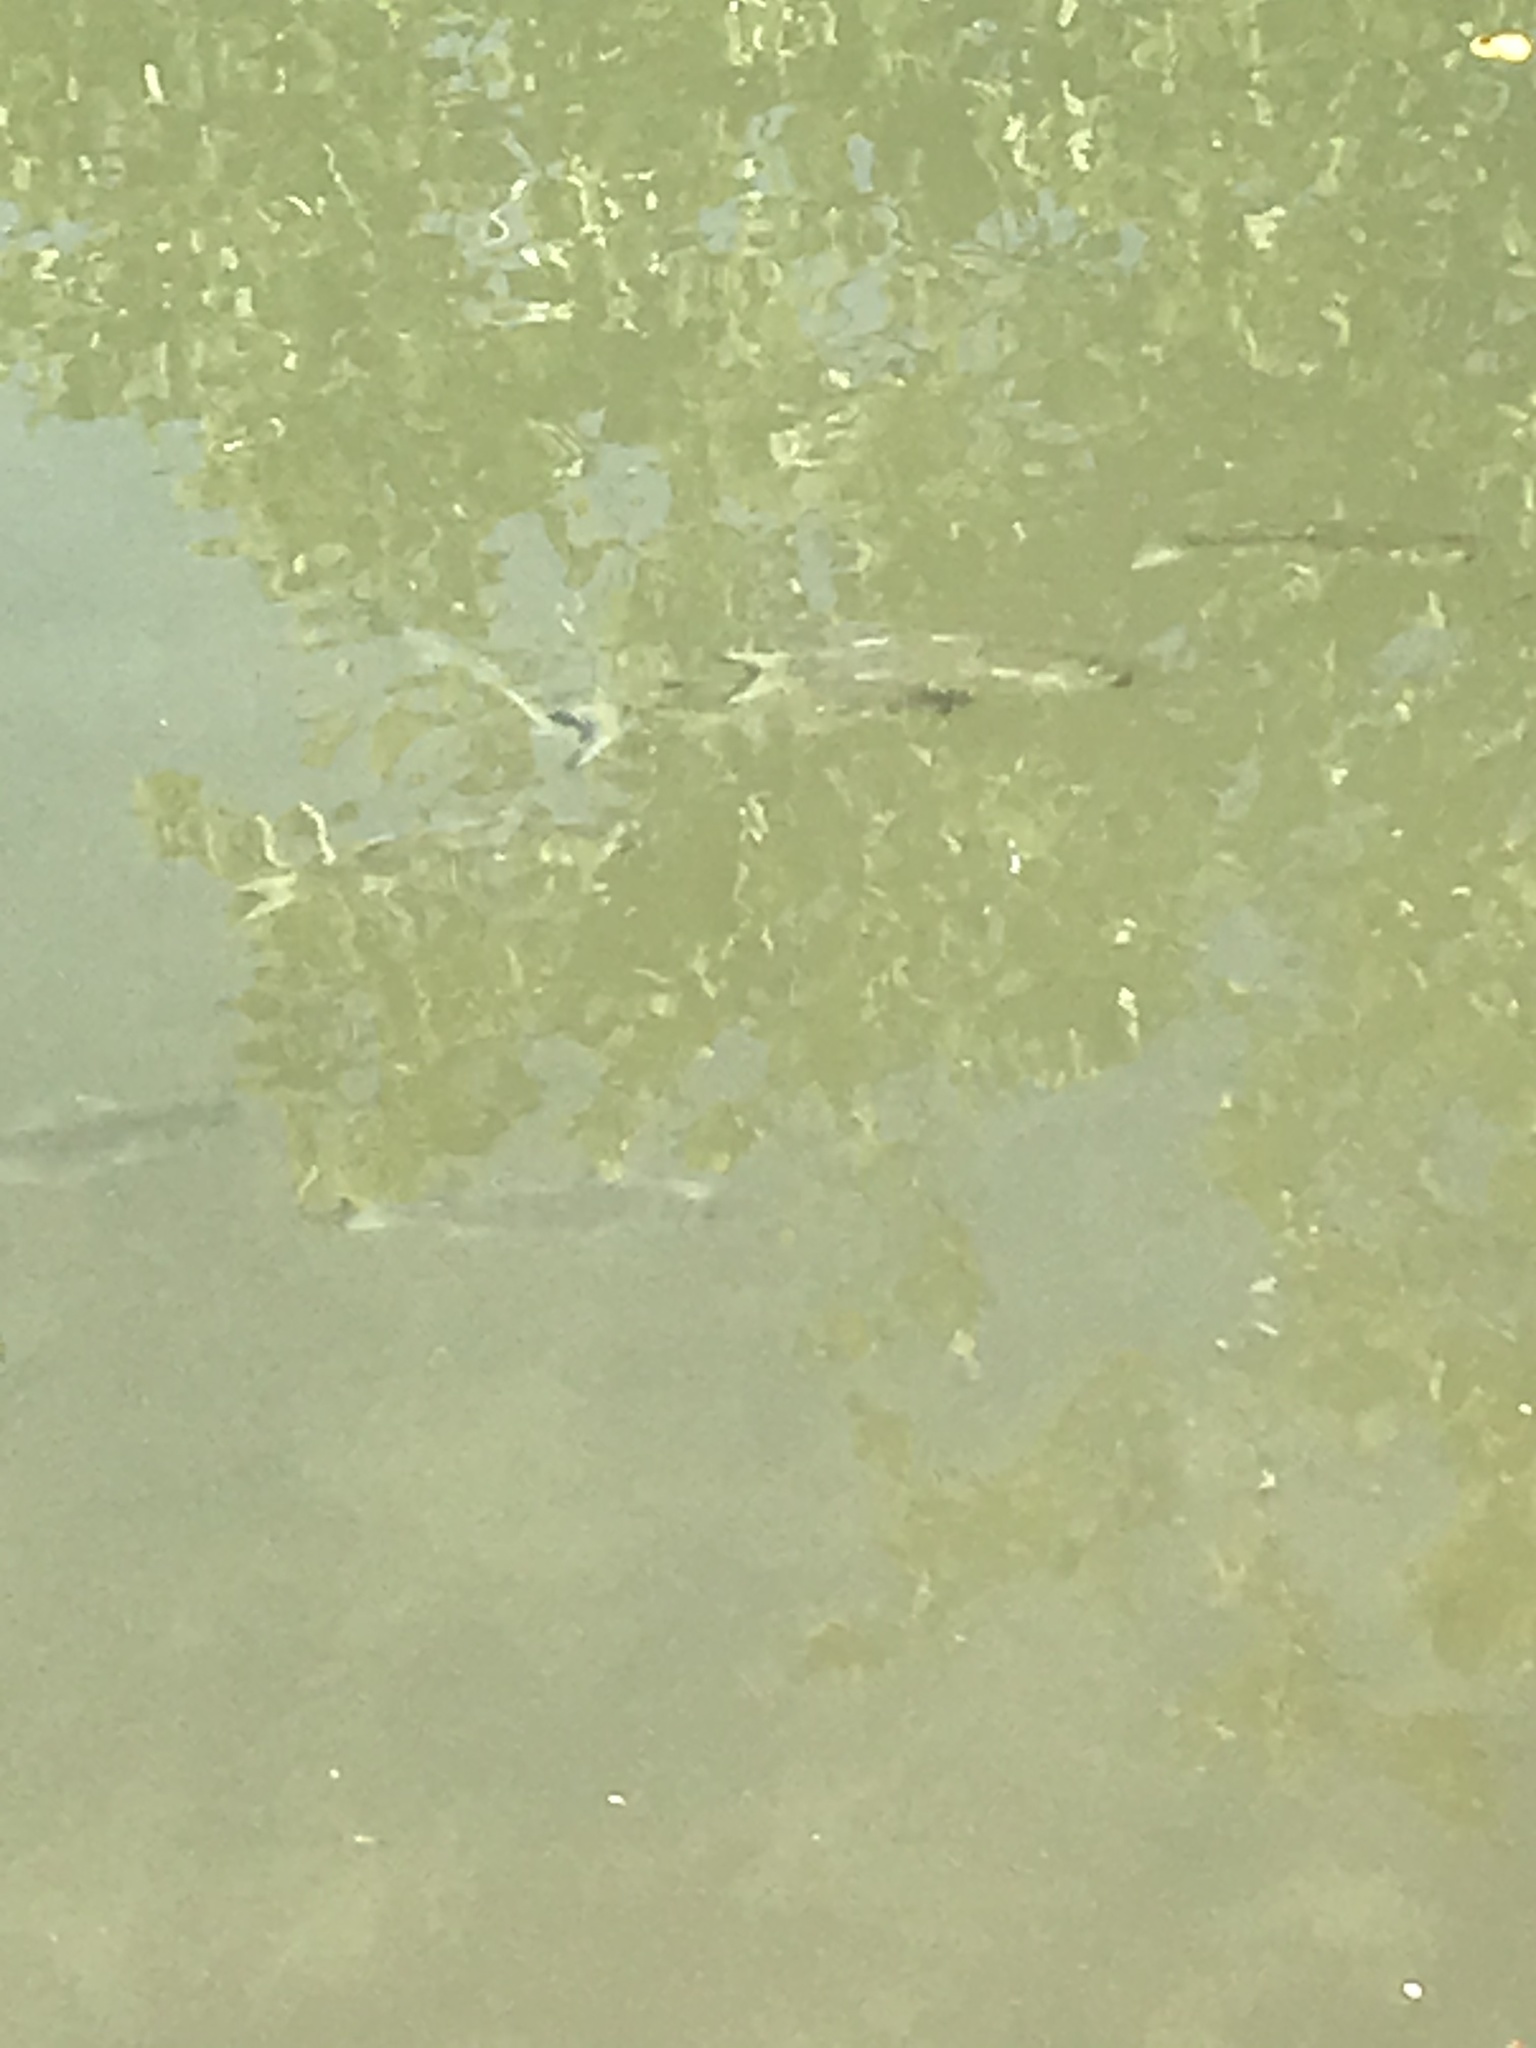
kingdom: Animalia
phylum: Chordata
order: Mugiliformes
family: Mugilidae
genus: Mugil
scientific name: Mugil curema
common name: White mullet
